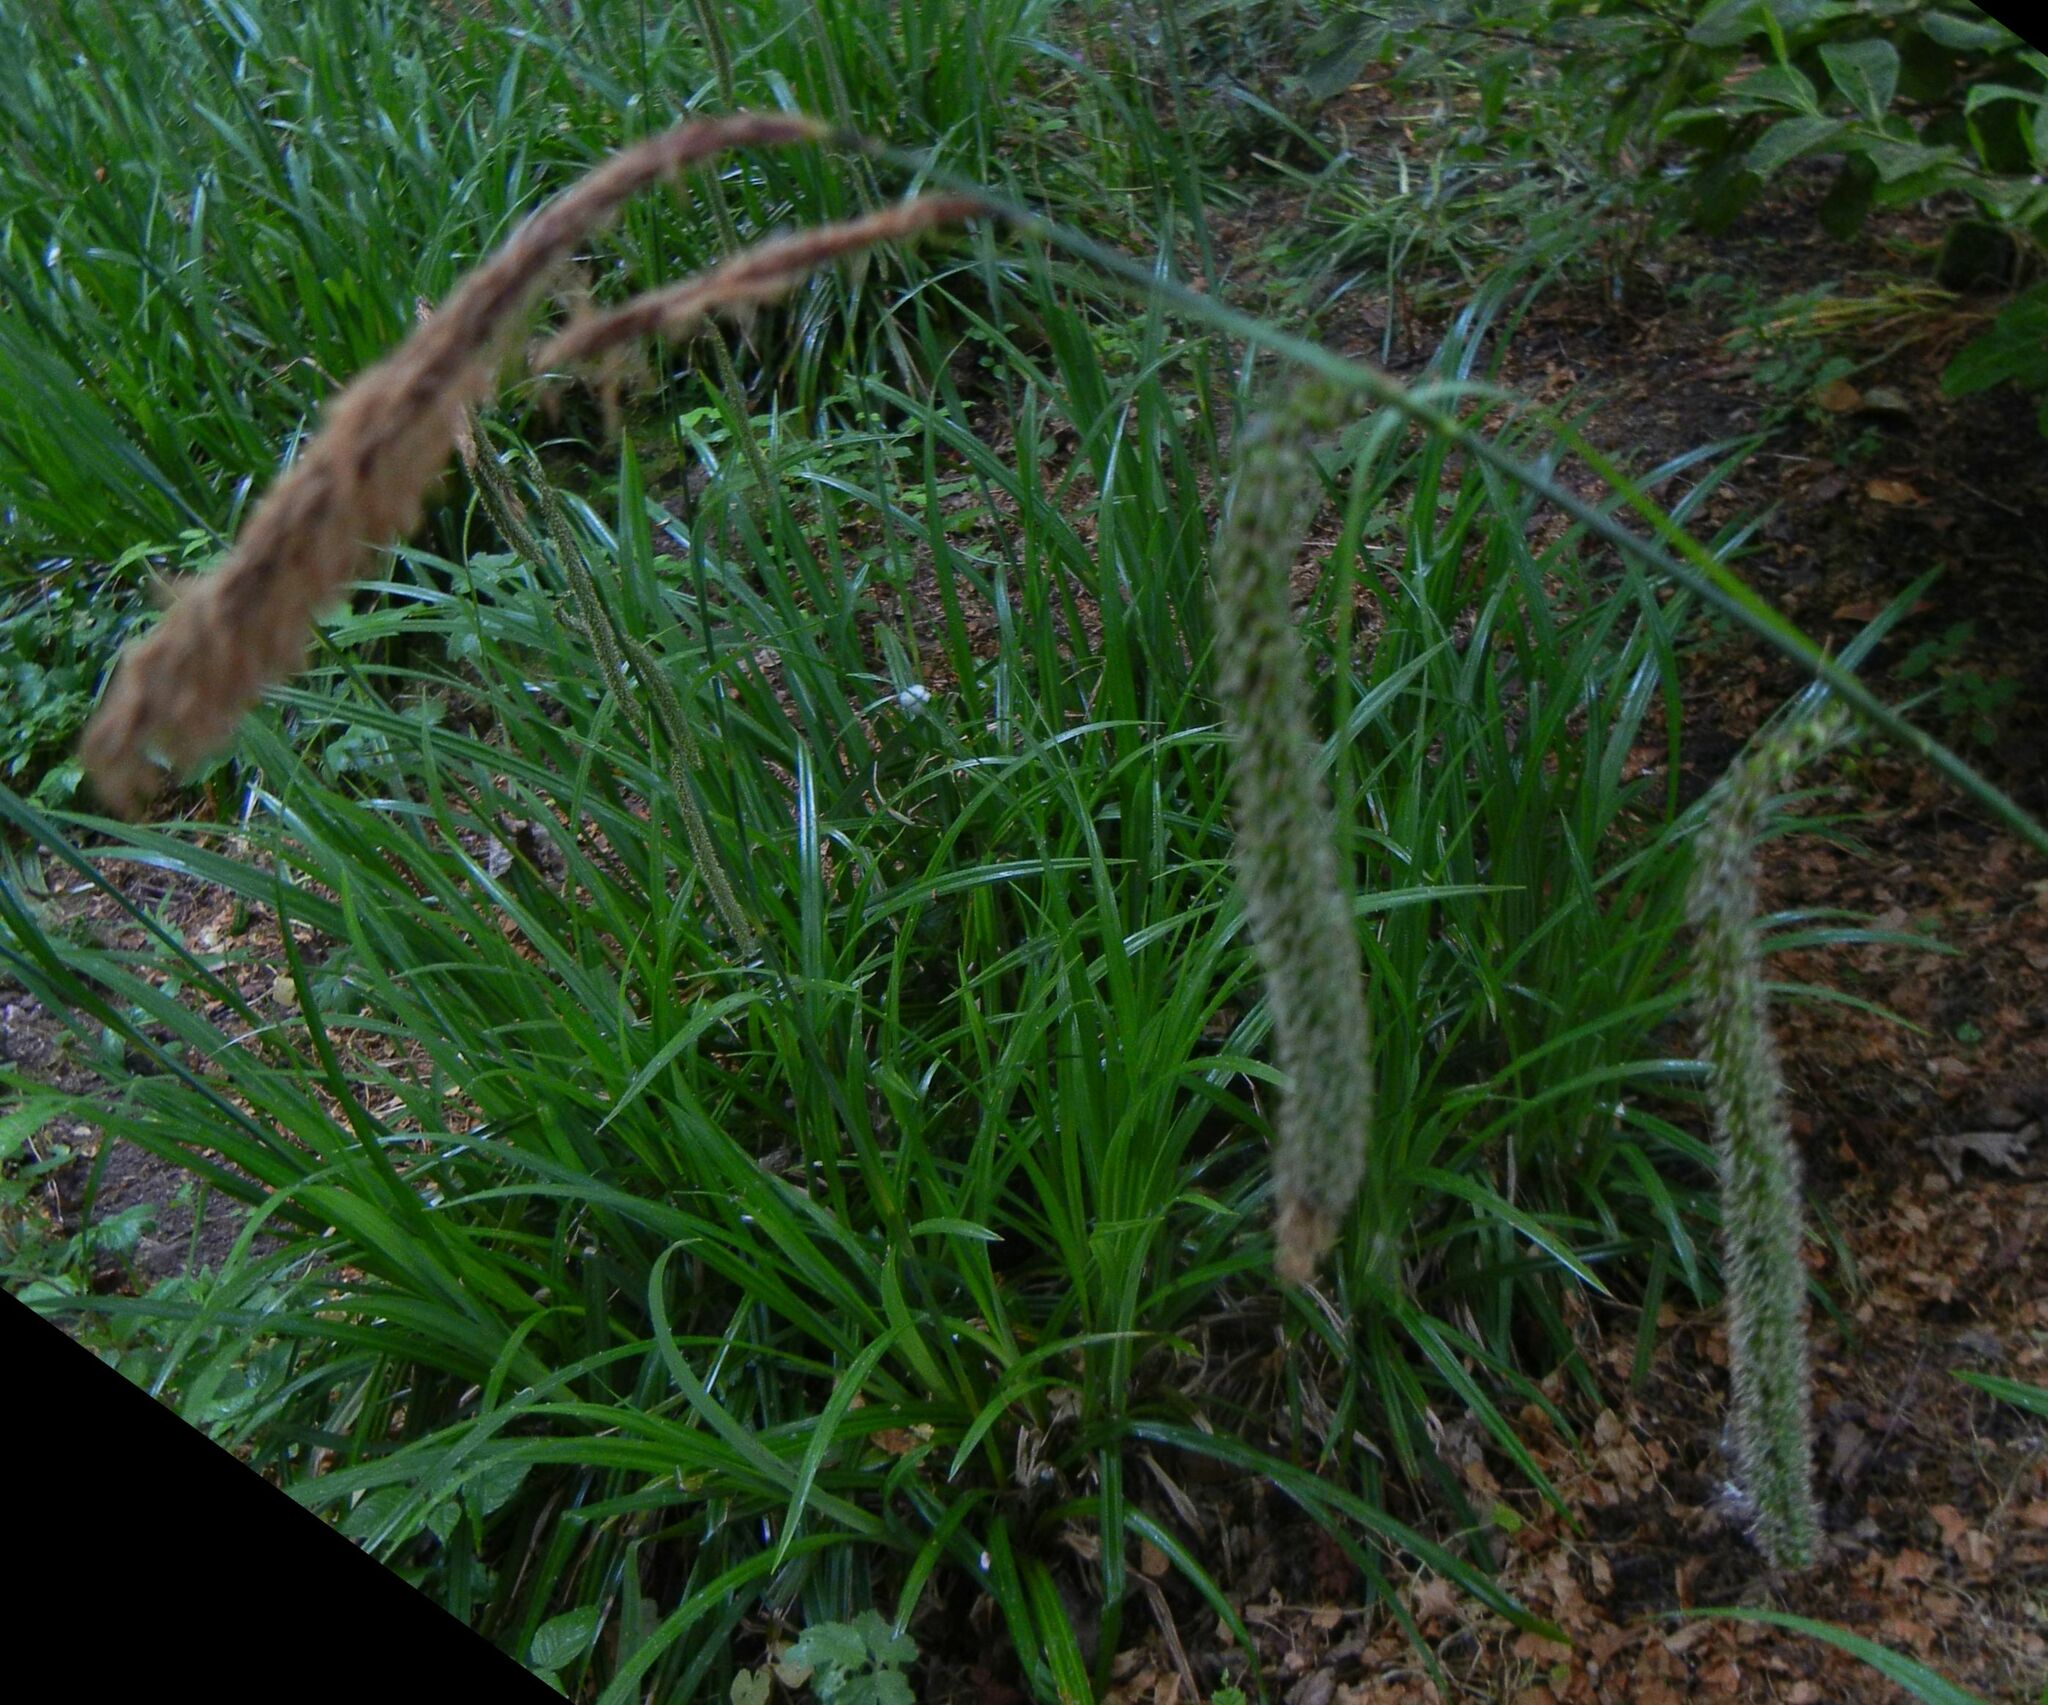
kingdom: Plantae
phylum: Tracheophyta
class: Liliopsida
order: Poales
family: Cyperaceae
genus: Carex
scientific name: Carex pendula
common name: Pendulous sedge
